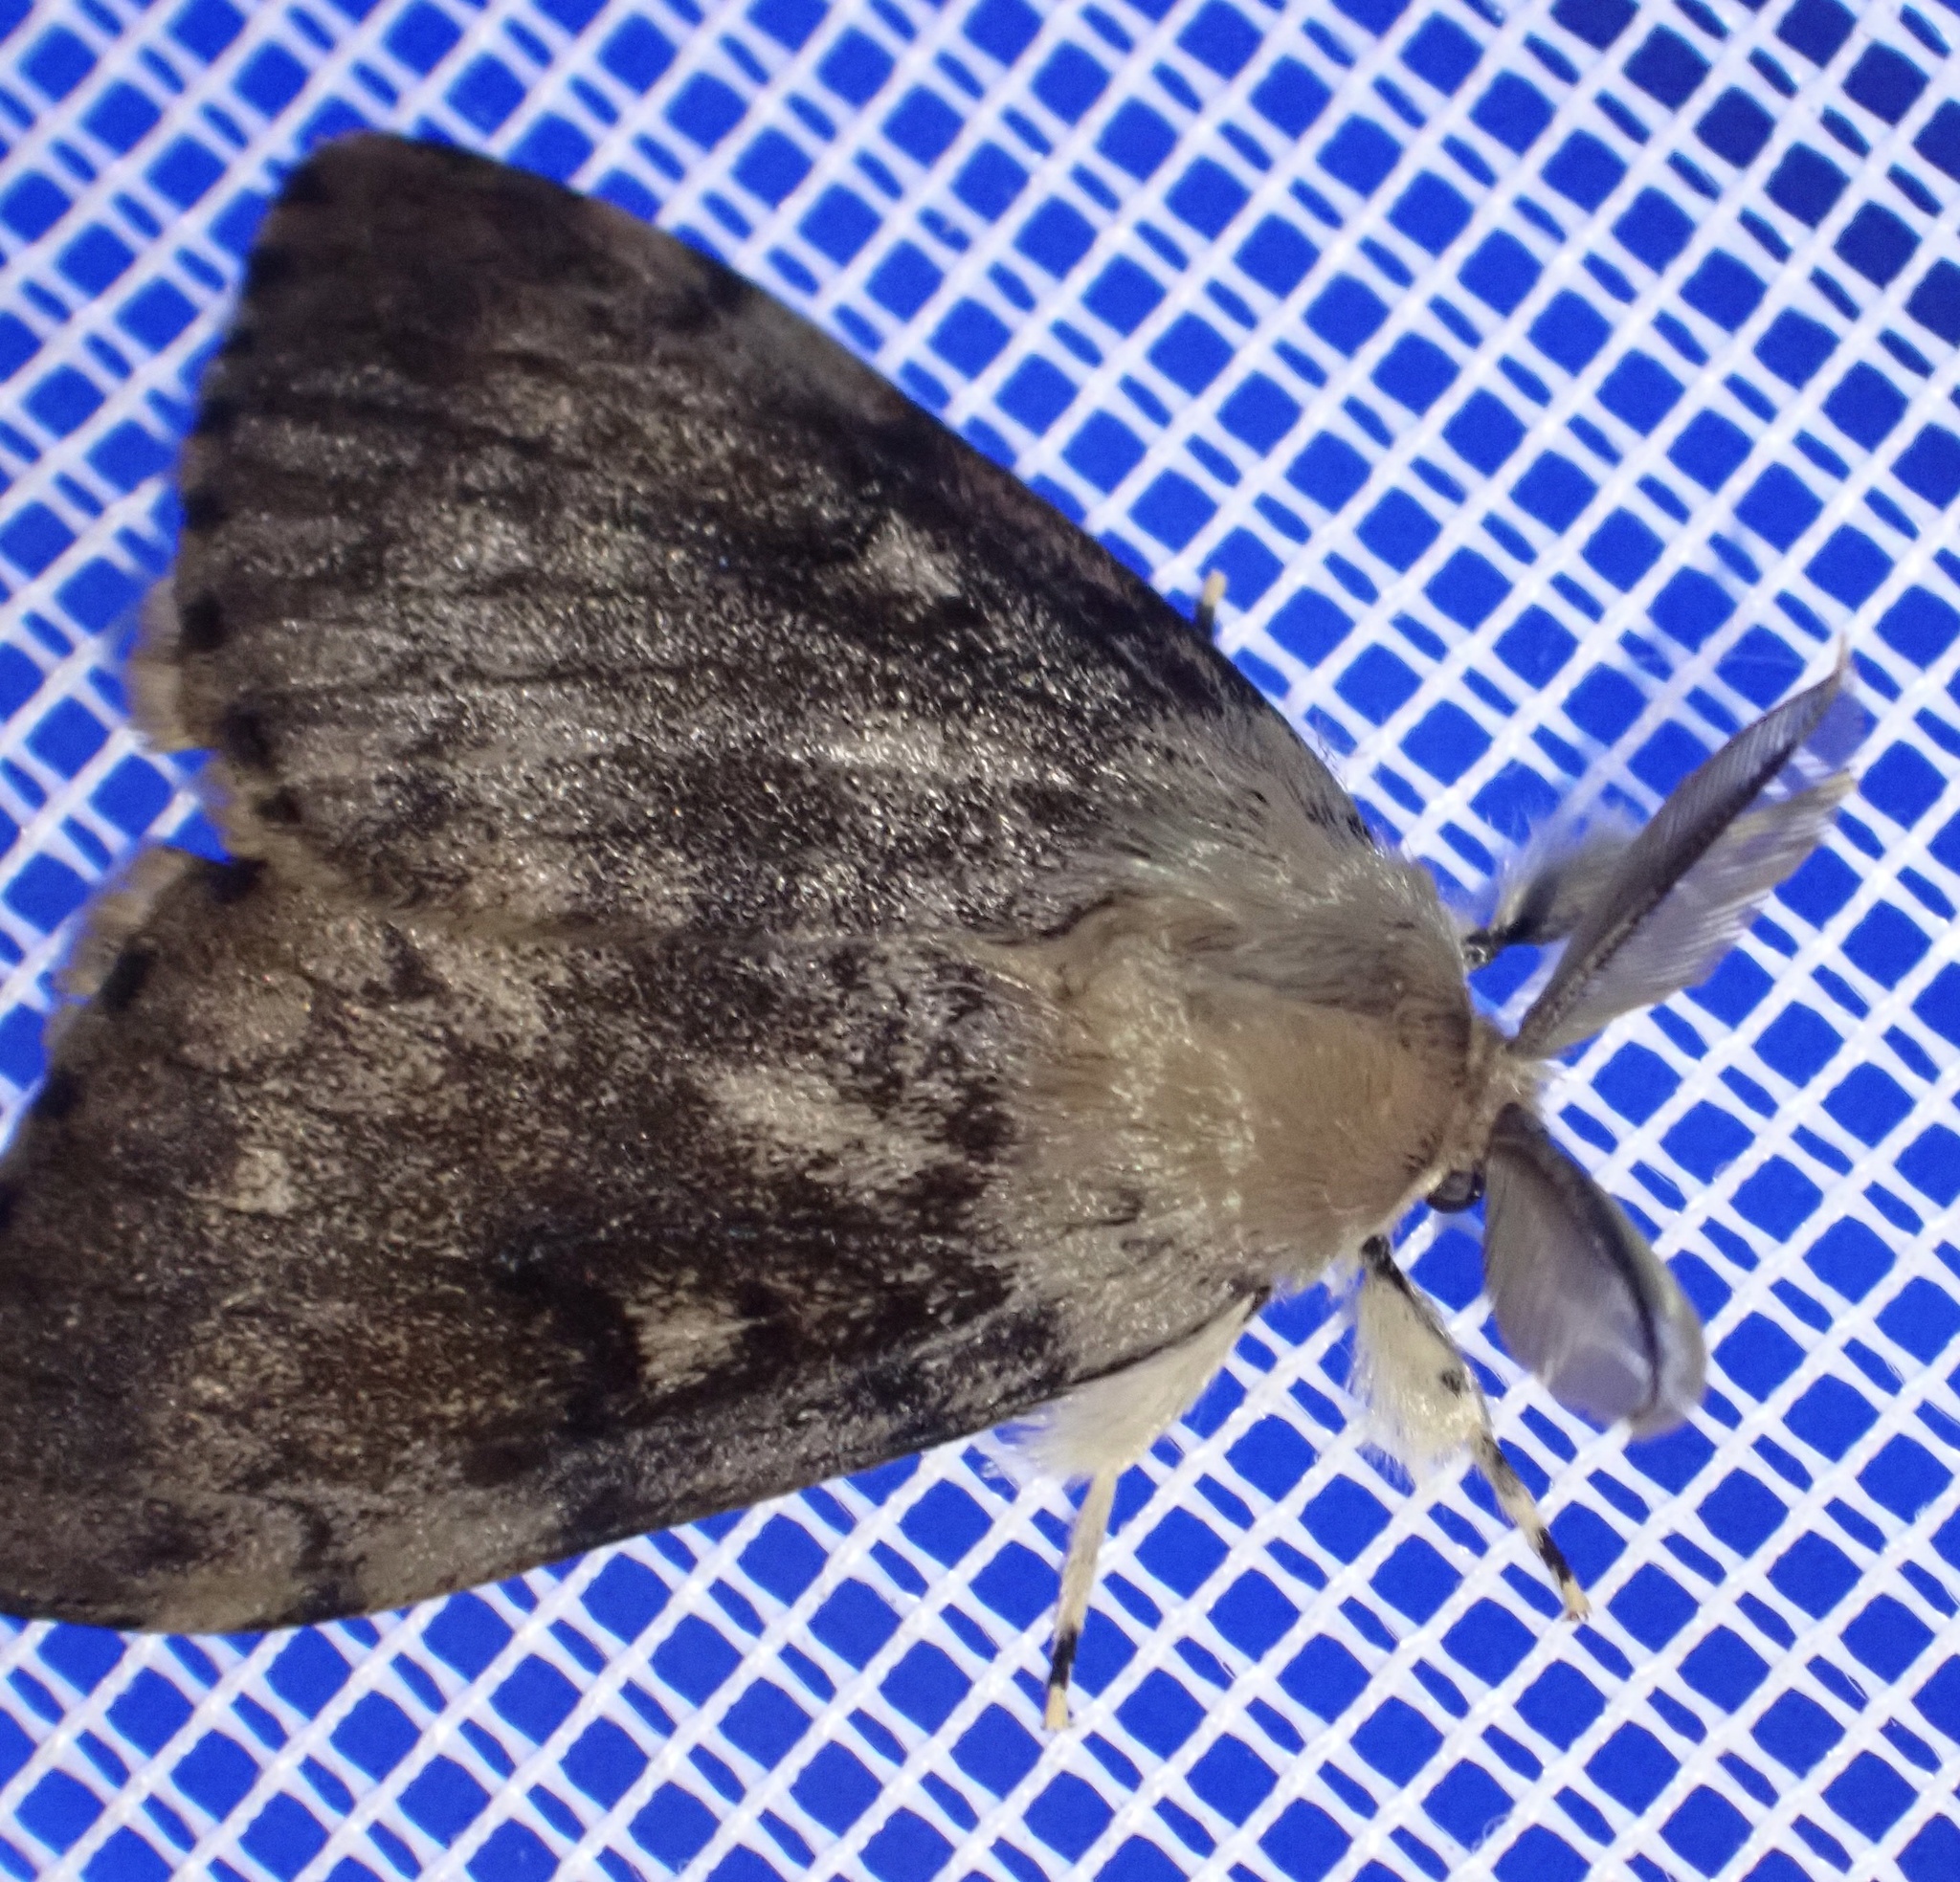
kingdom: Animalia
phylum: Arthropoda
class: Insecta
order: Lepidoptera
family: Erebidae
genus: Lymantria
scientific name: Lymantria dispar
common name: Gypsy moth
